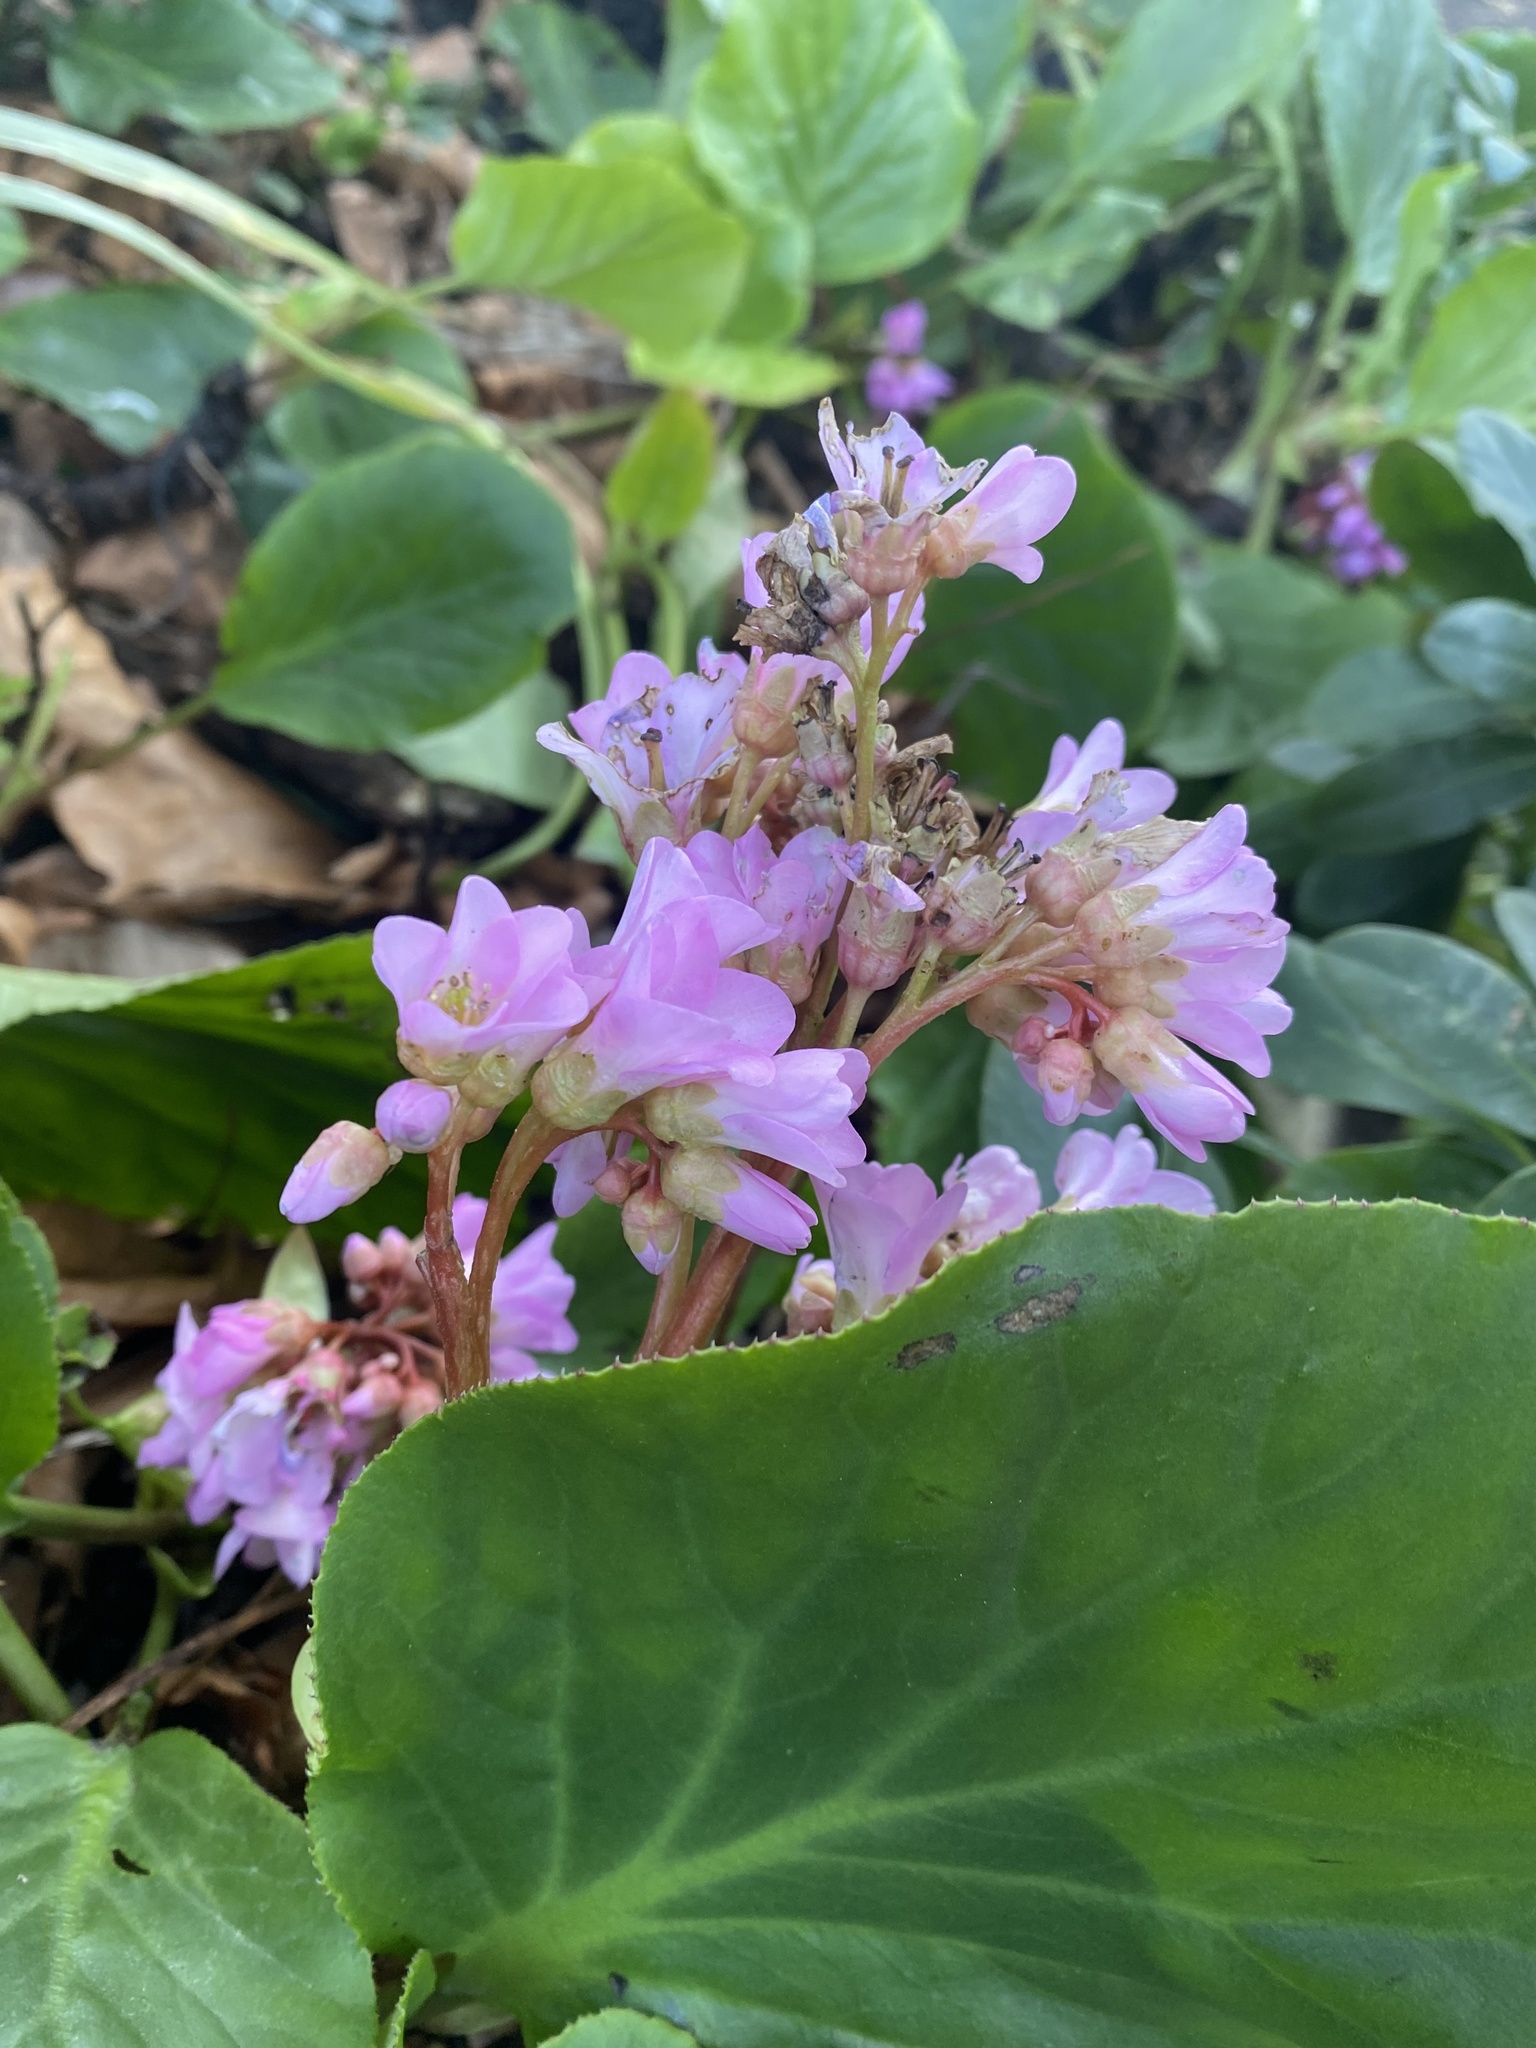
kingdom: Plantae
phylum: Tracheophyta
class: Magnoliopsida
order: Saxifragales
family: Saxifragaceae
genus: Bergenia
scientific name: Bergenia crassifolia
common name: Elephant-ears
